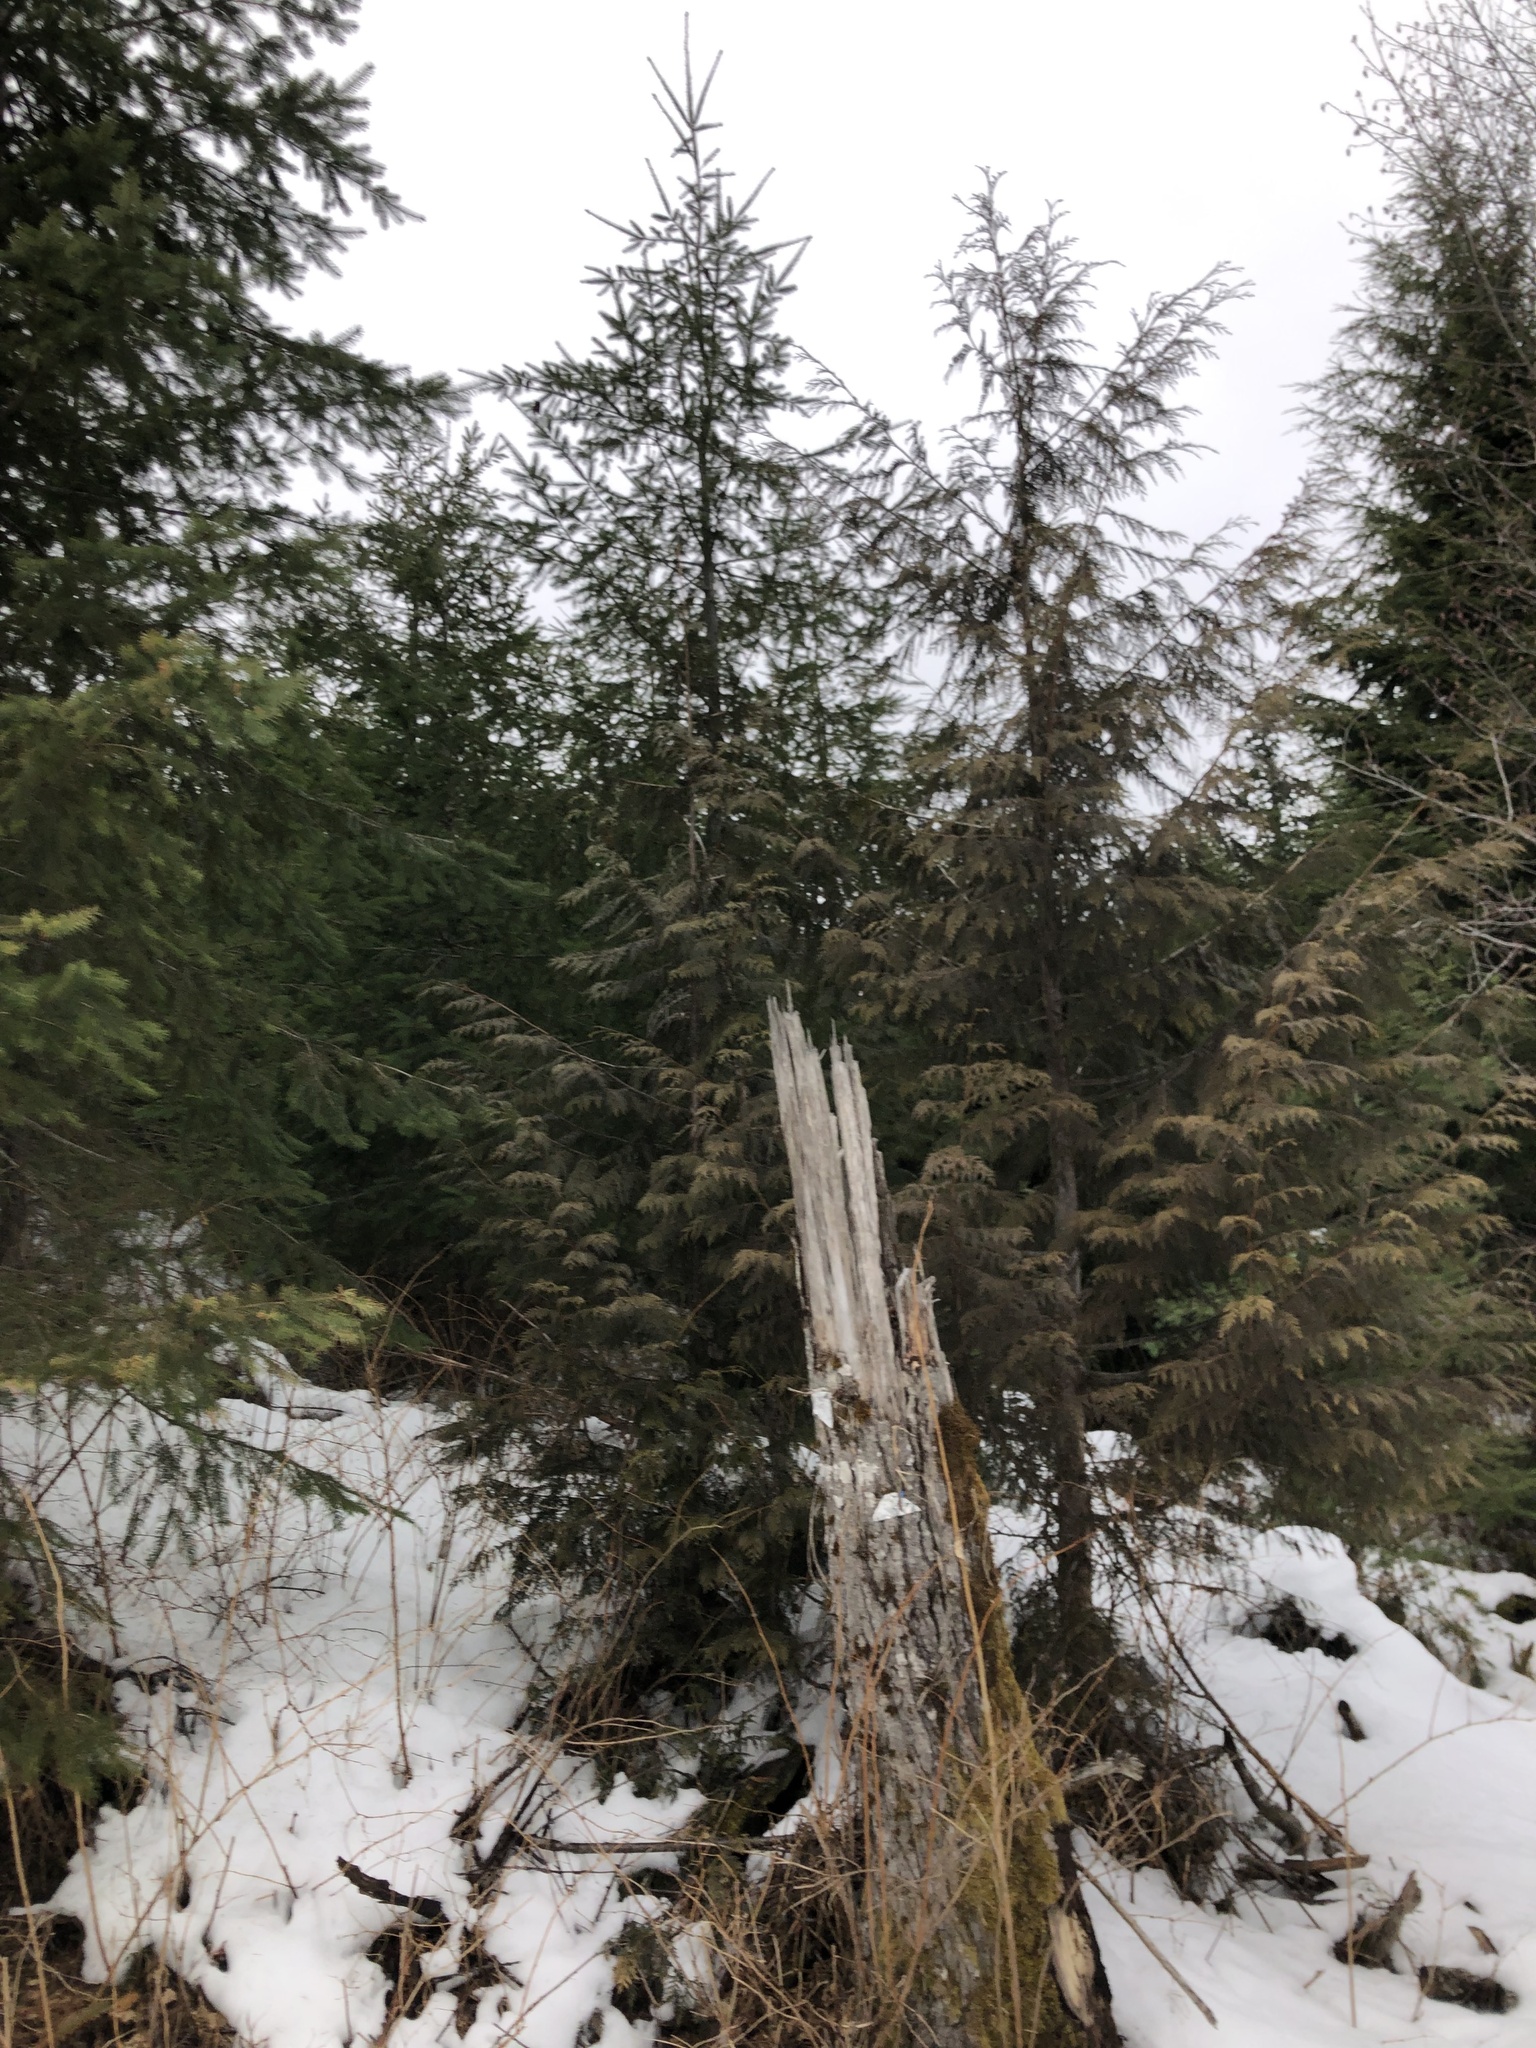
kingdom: Plantae
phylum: Tracheophyta
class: Pinopsida
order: Pinales
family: Cupressaceae
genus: Thuja
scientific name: Thuja plicata
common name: Western red-cedar
